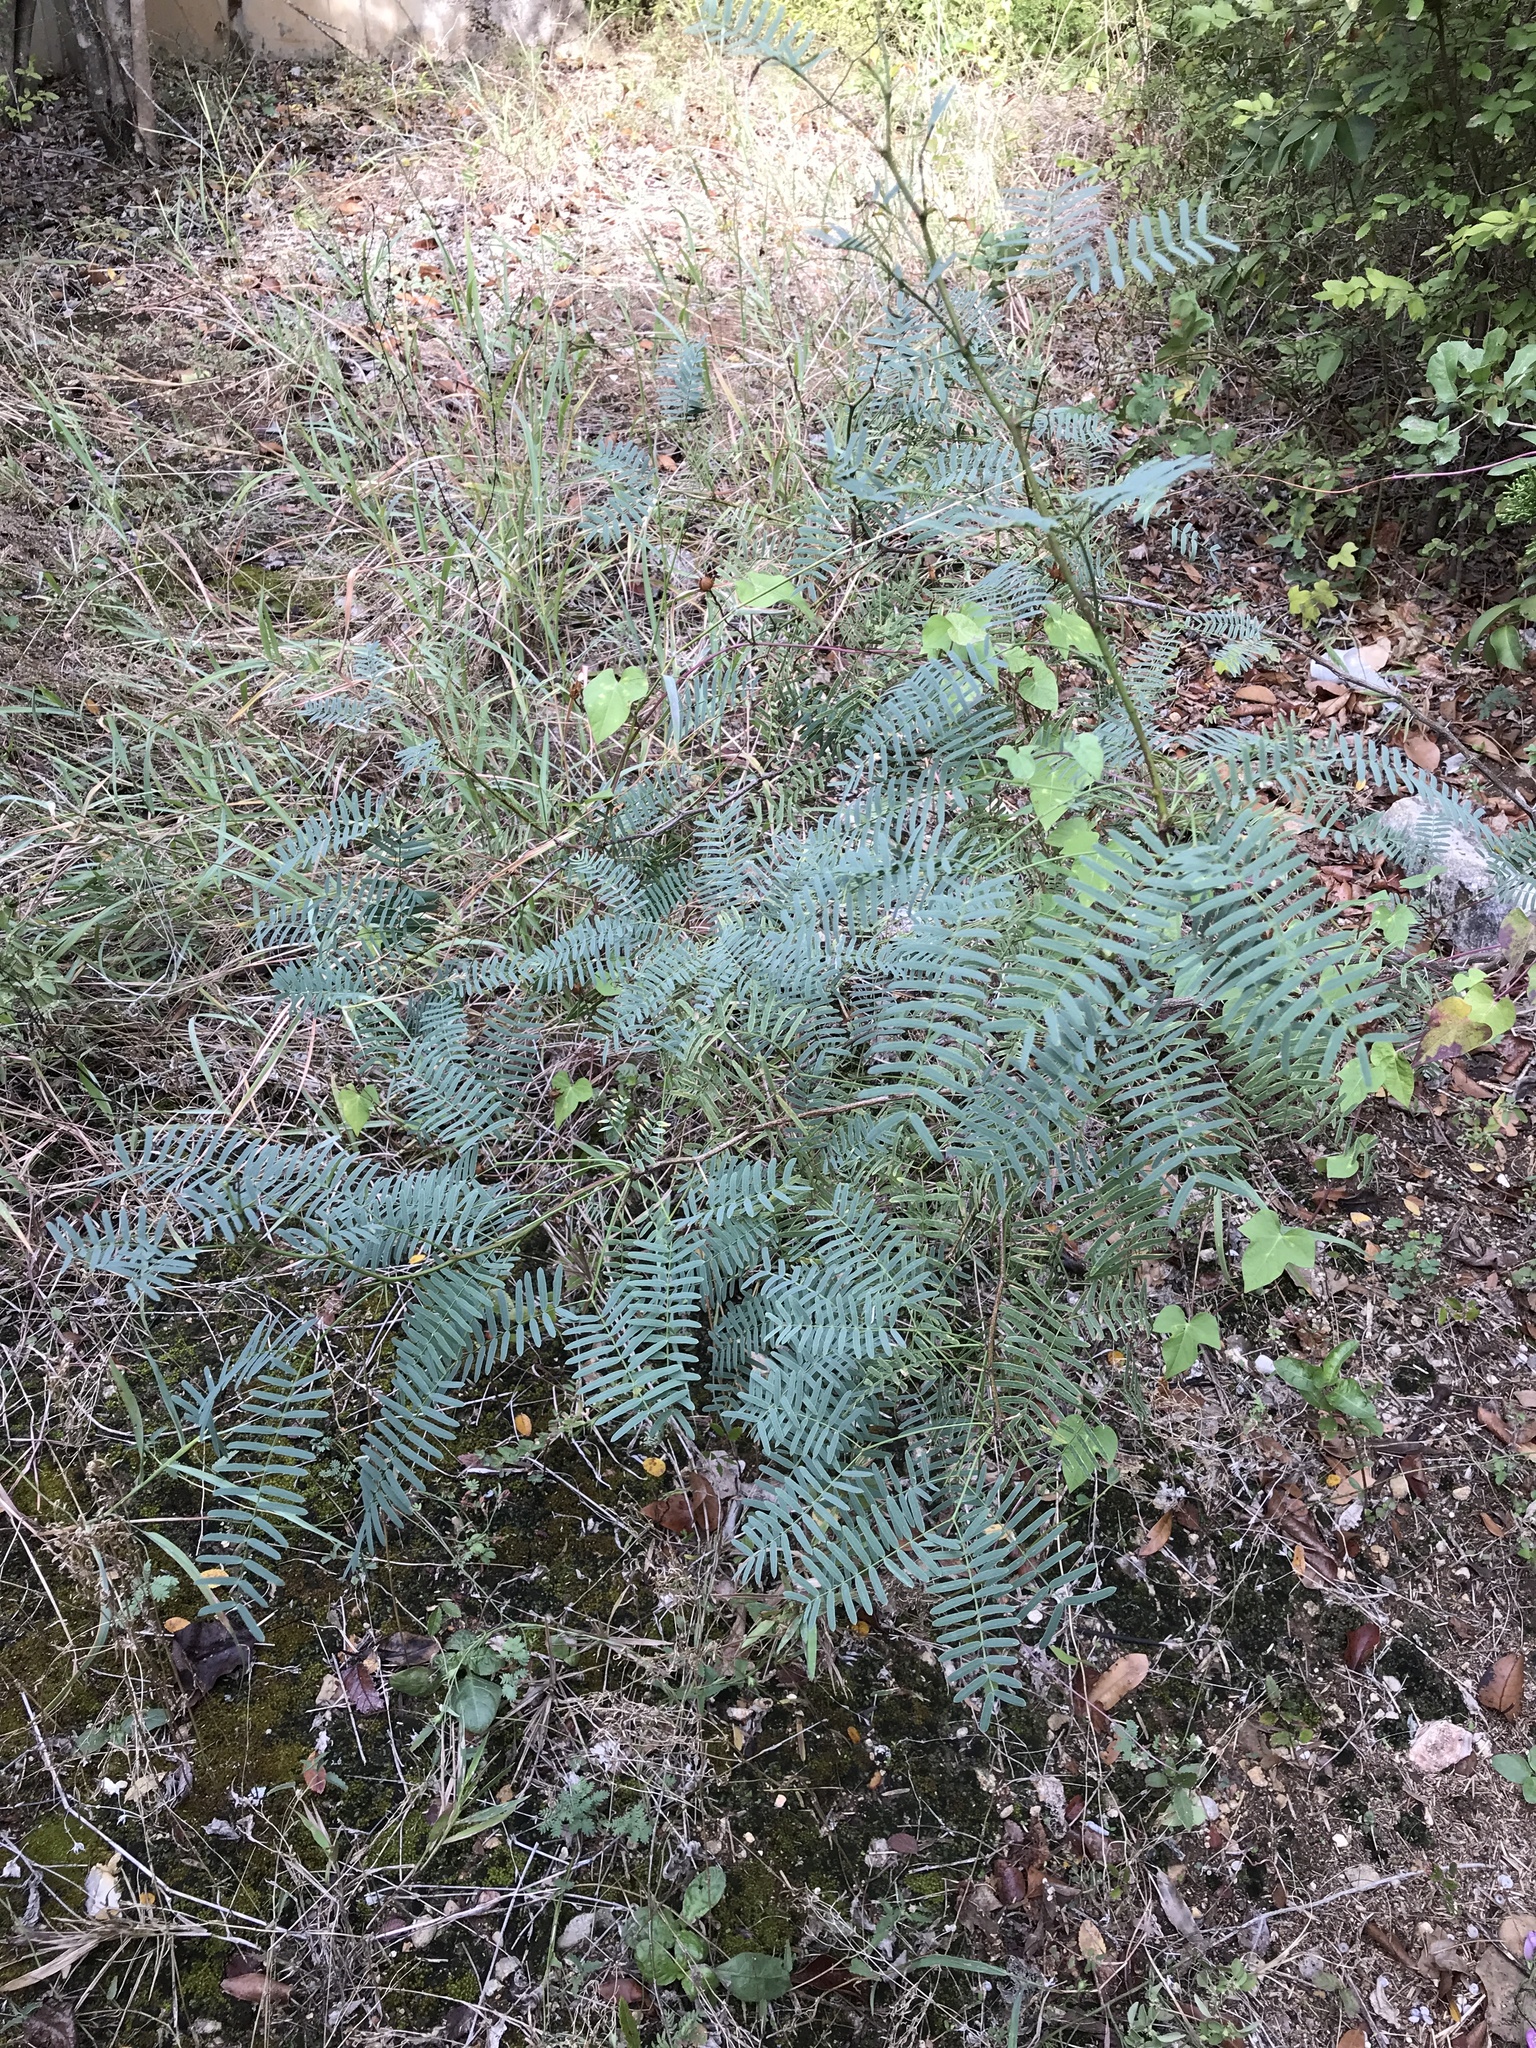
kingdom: Plantae
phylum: Tracheophyta
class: Magnoliopsida
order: Fabales
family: Fabaceae
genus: Prosopis
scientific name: Prosopis glandulosa
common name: Honey mesquite
